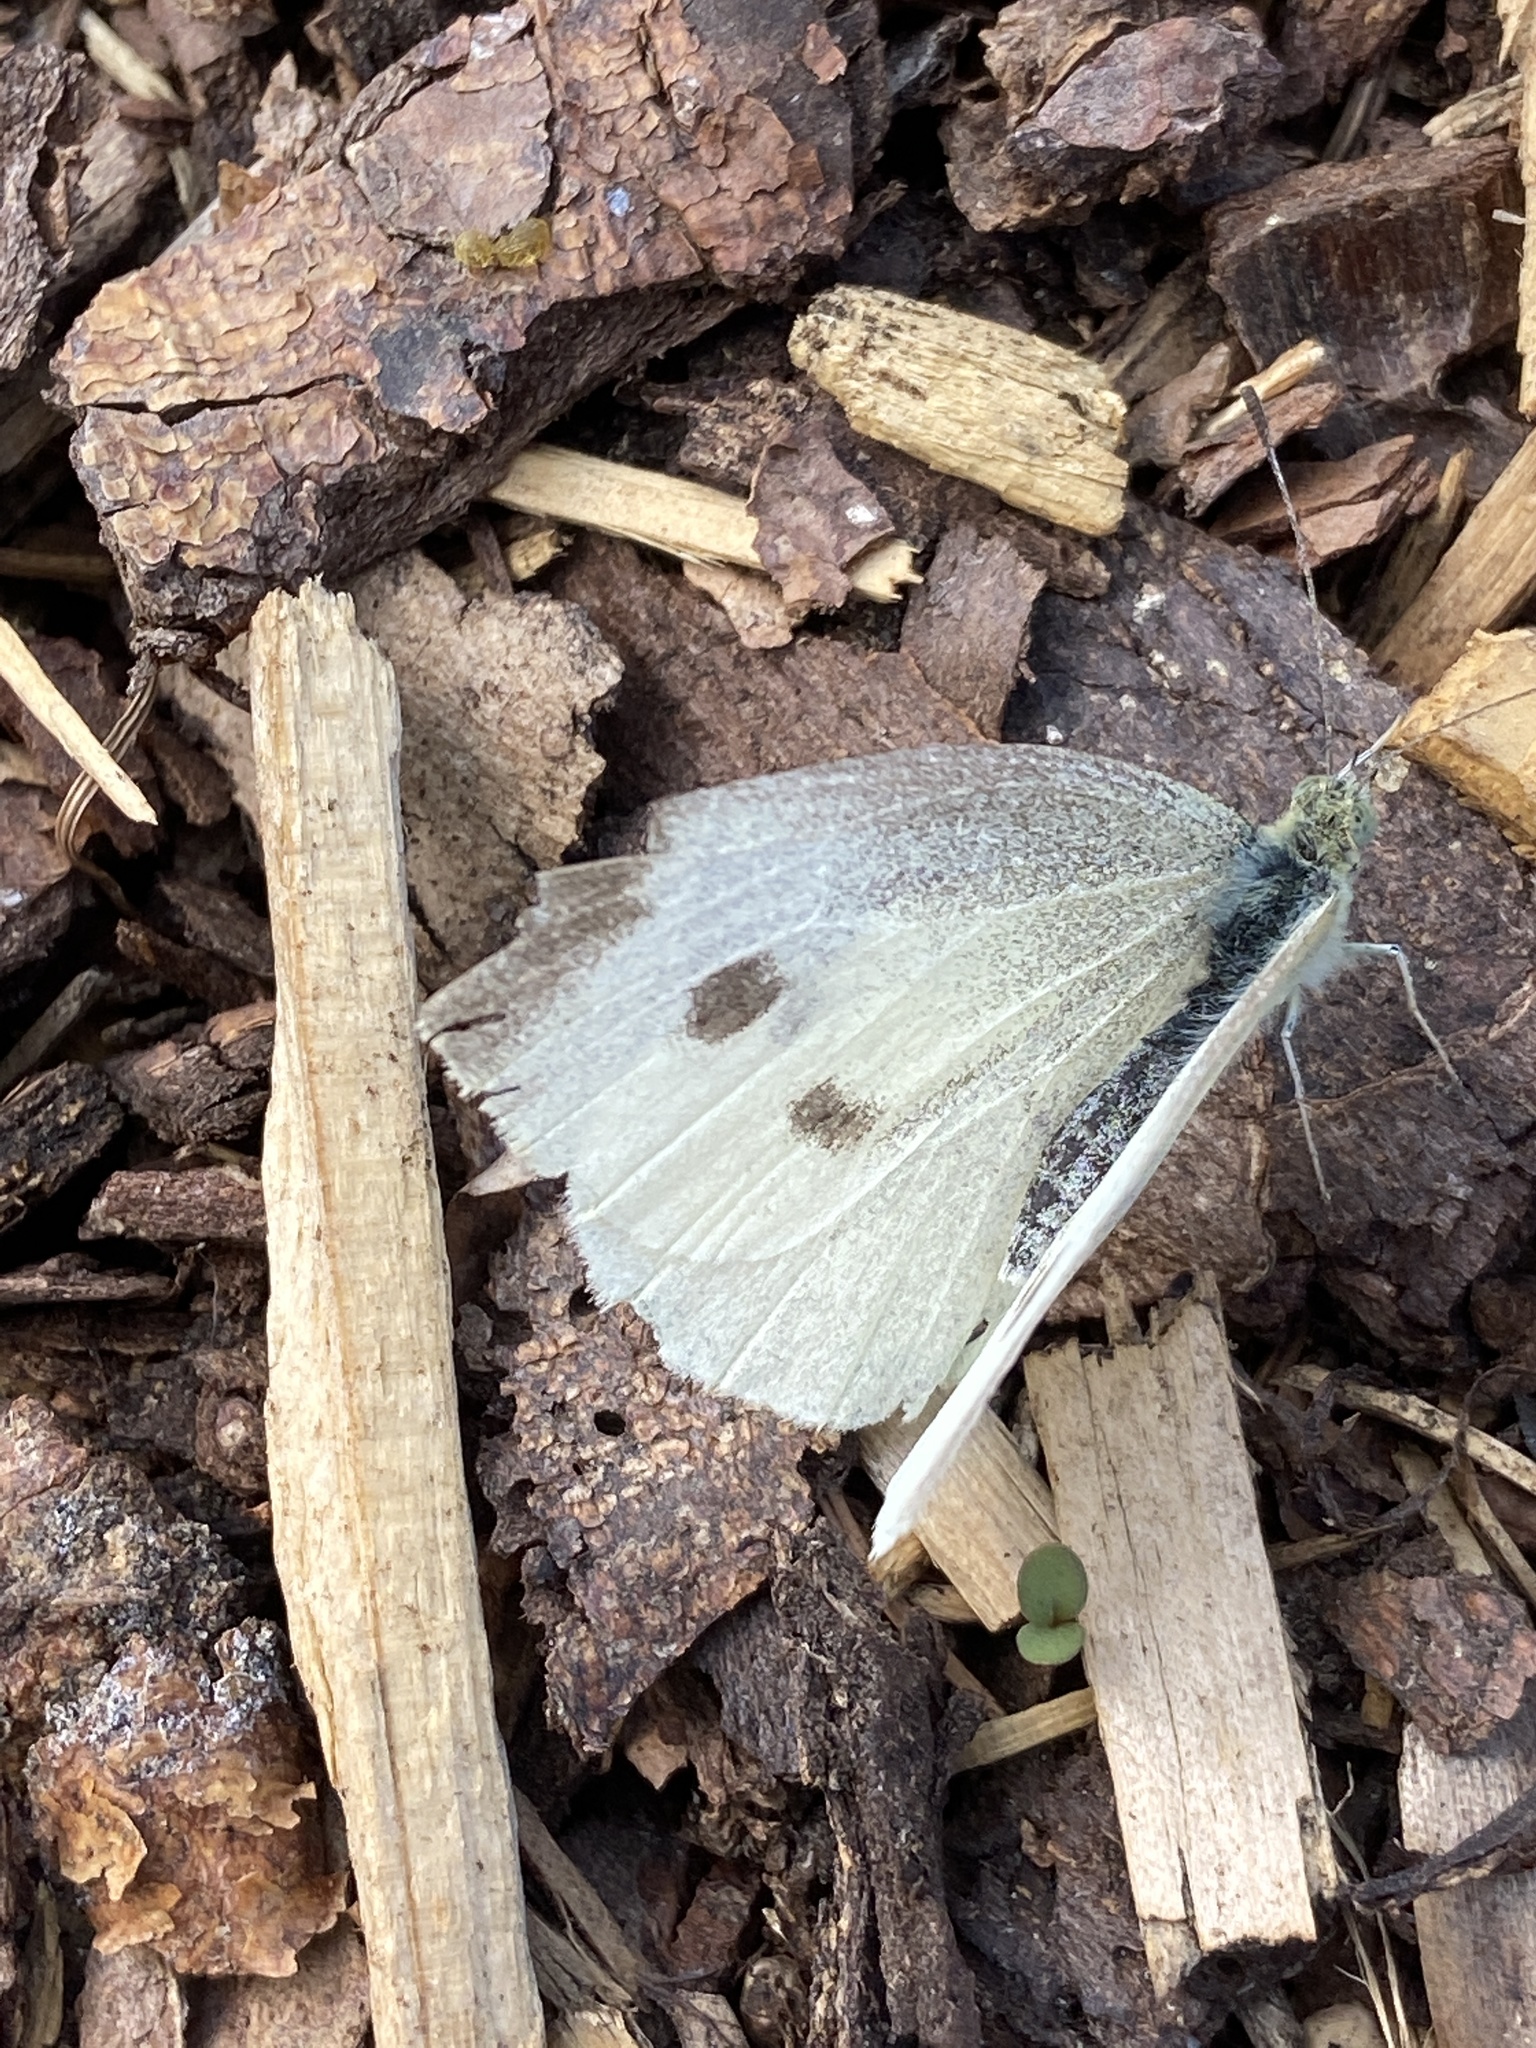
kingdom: Animalia
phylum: Arthropoda
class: Insecta
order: Lepidoptera
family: Pieridae
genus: Pieris
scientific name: Pieris rapae
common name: Small white
